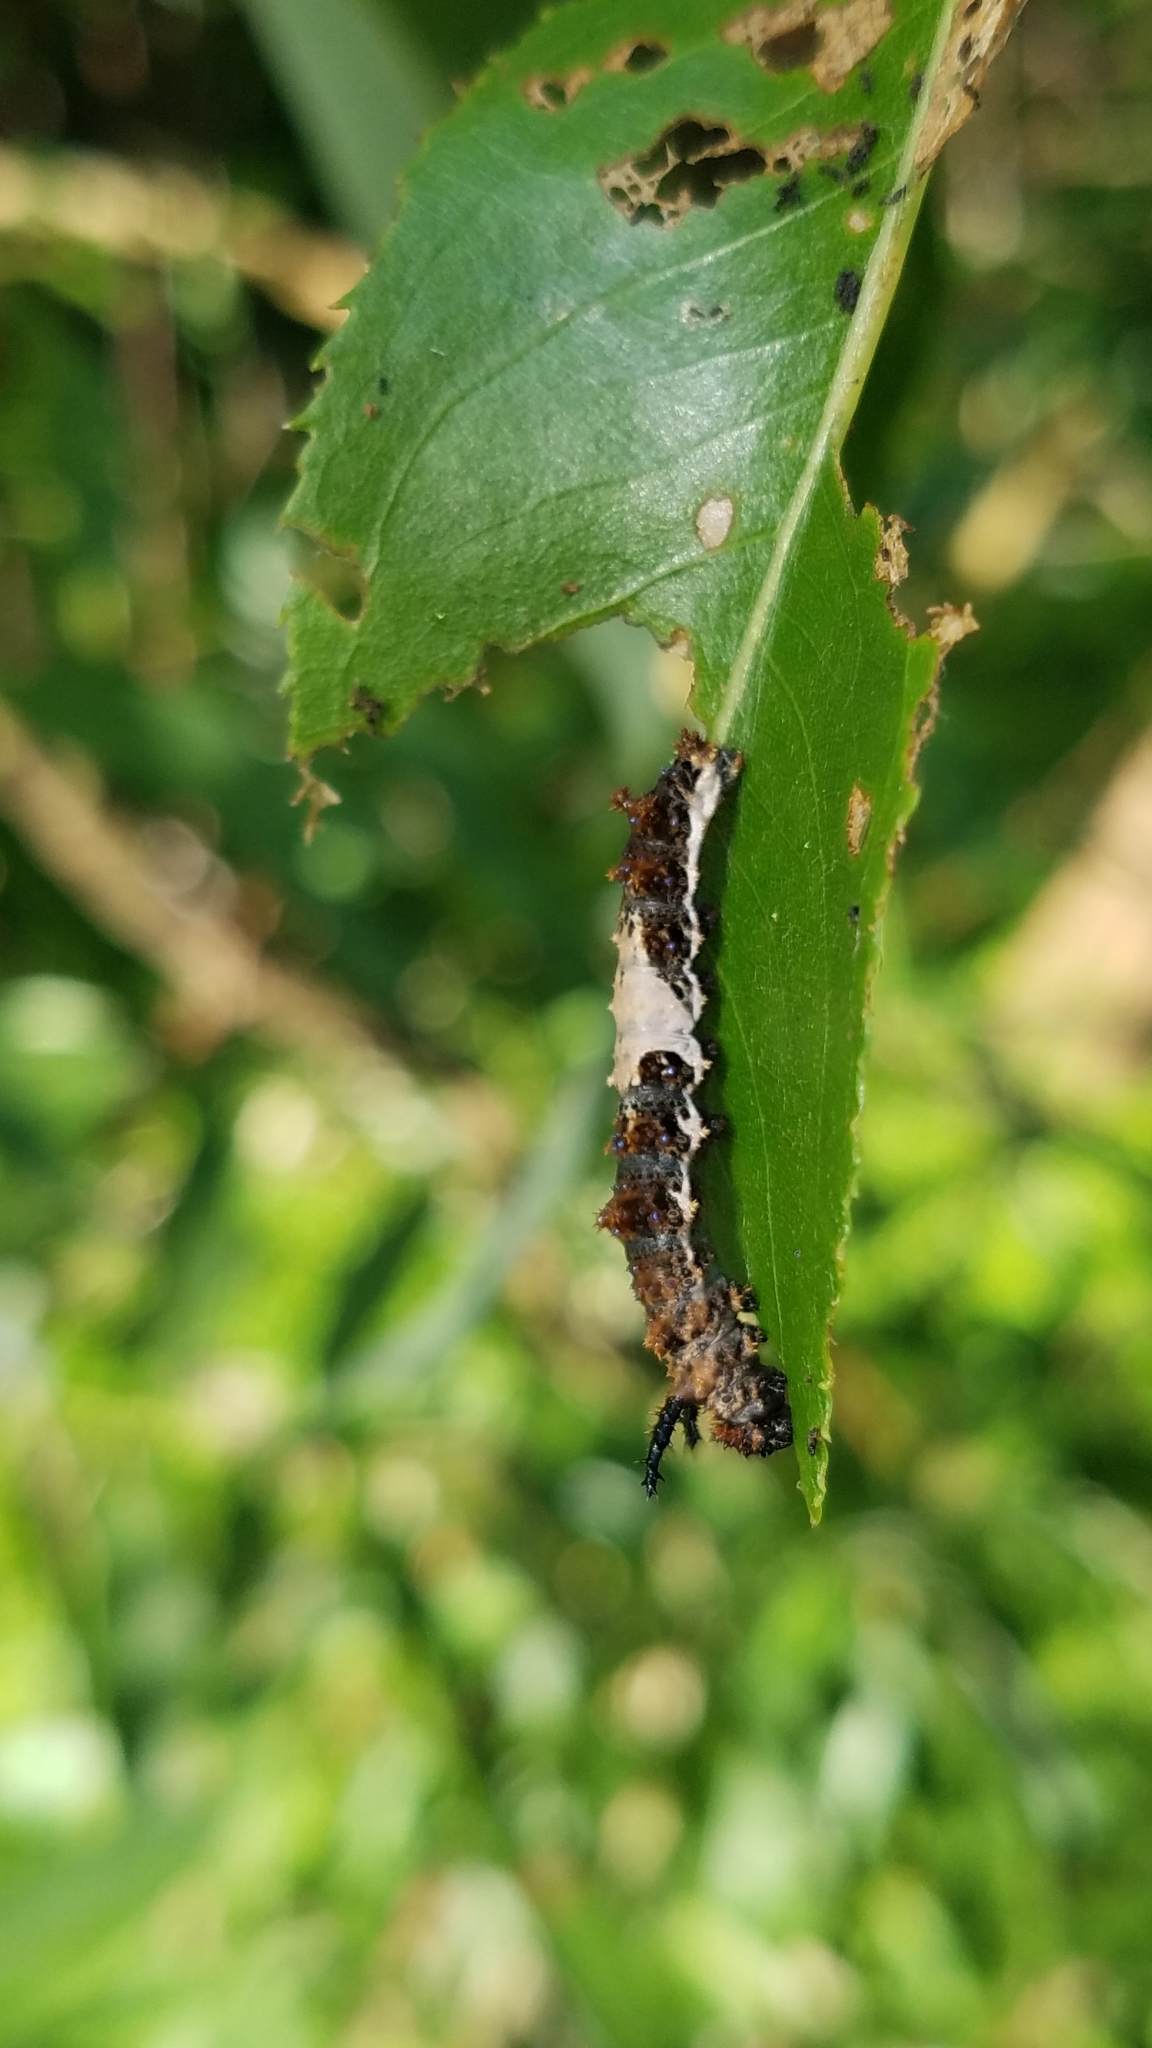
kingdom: Animalia
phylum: Arthropoda
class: Insecta
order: Lepidoptera
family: Nymphalidae
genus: Limenitis
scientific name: Limenitis archippus
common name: Viceroy
